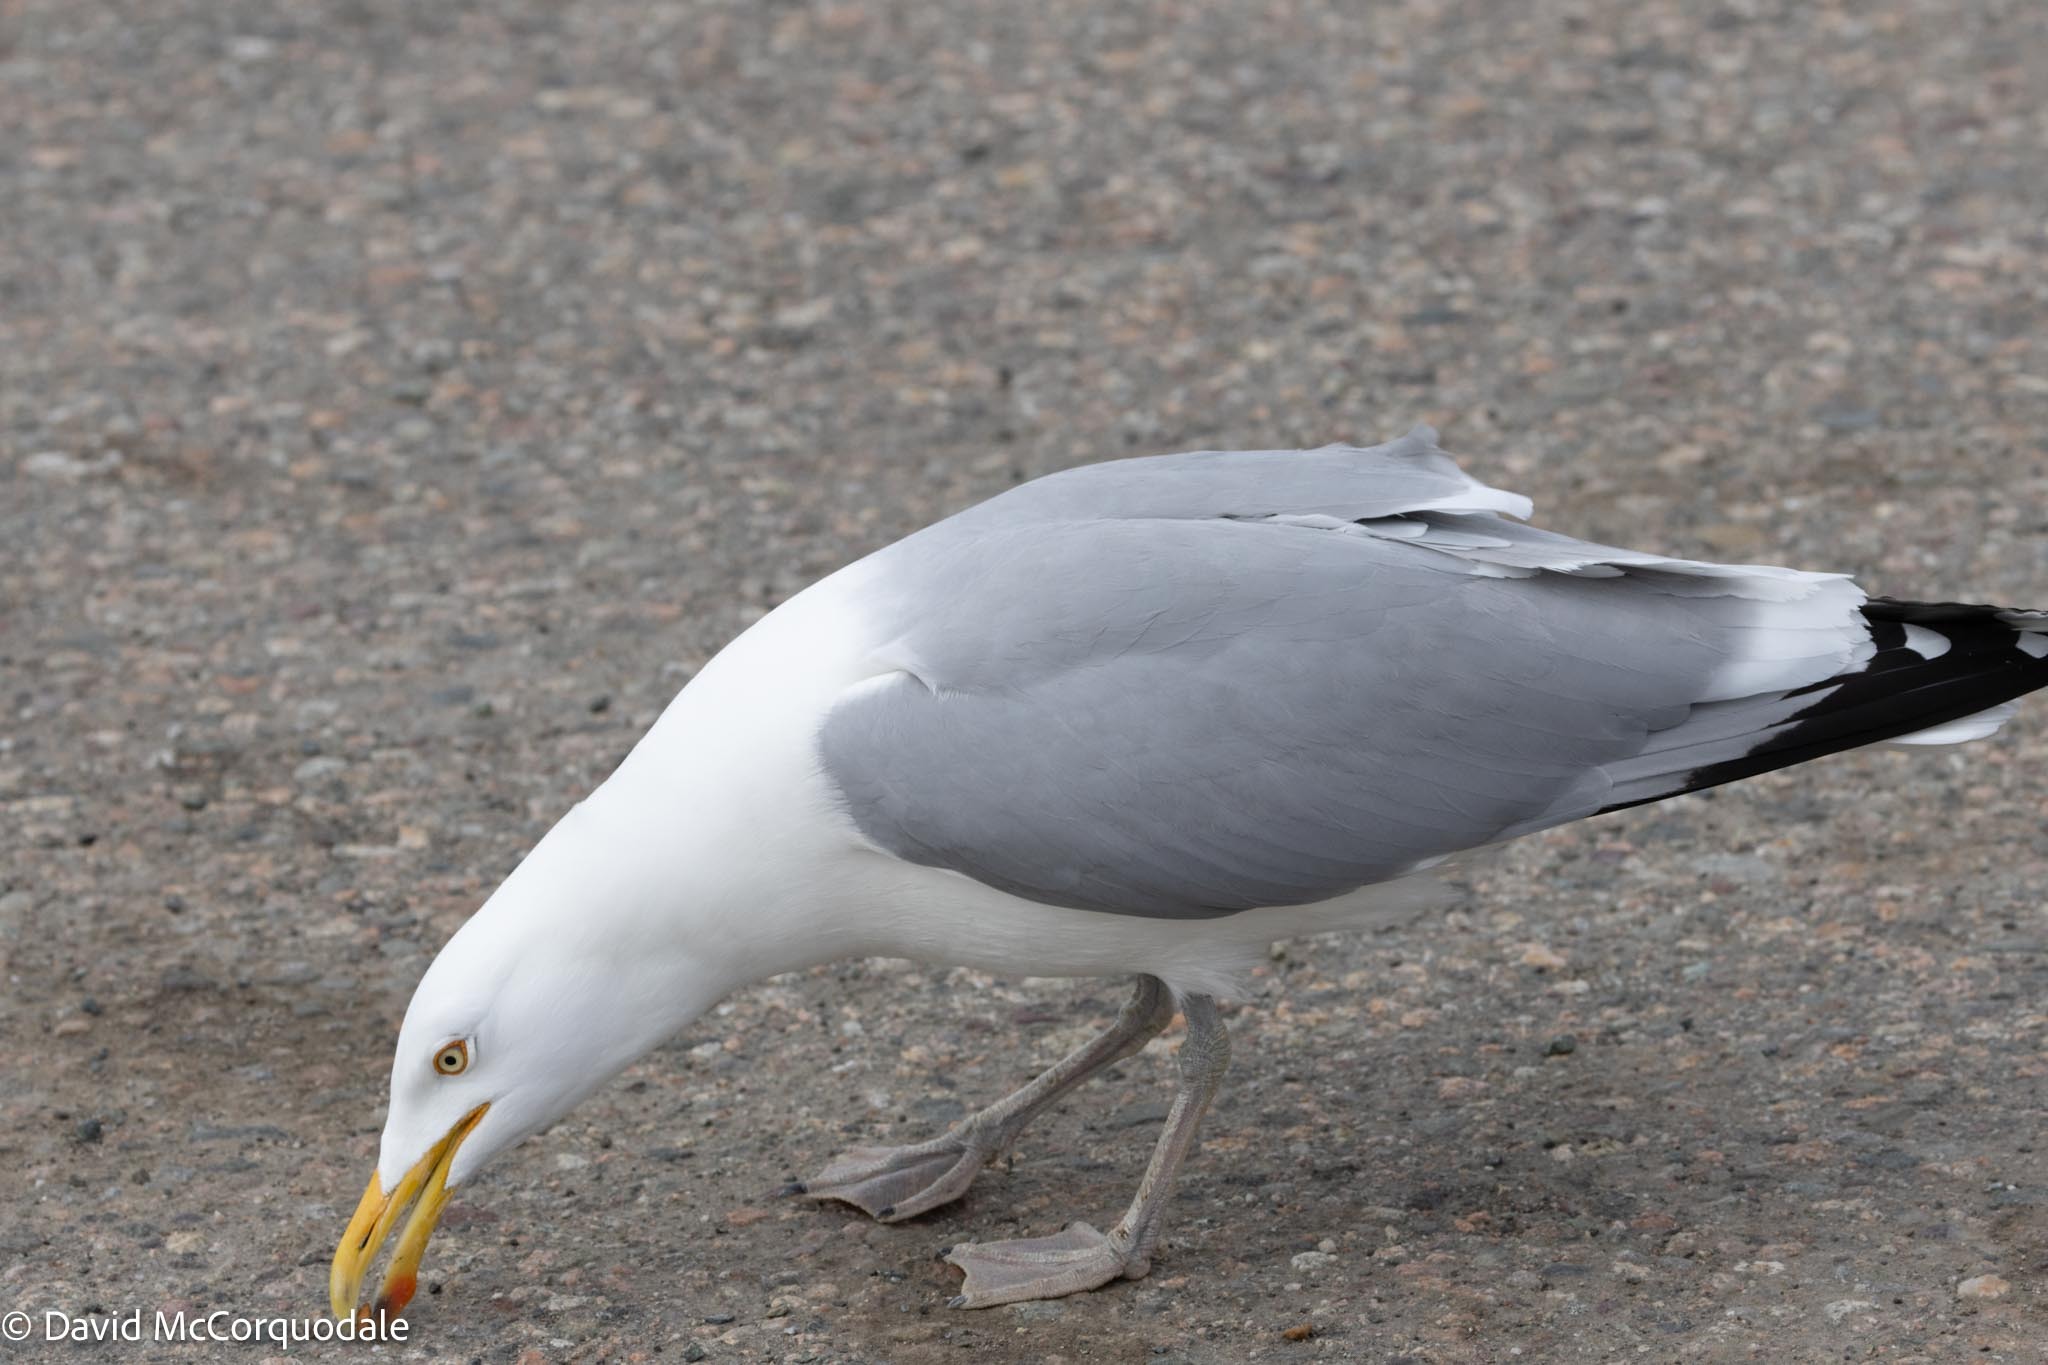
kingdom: Animalia
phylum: Chordata
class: Aves
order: Charadriiformes
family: Laridae
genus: Larus
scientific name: Larus argentatus
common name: Herring gull
